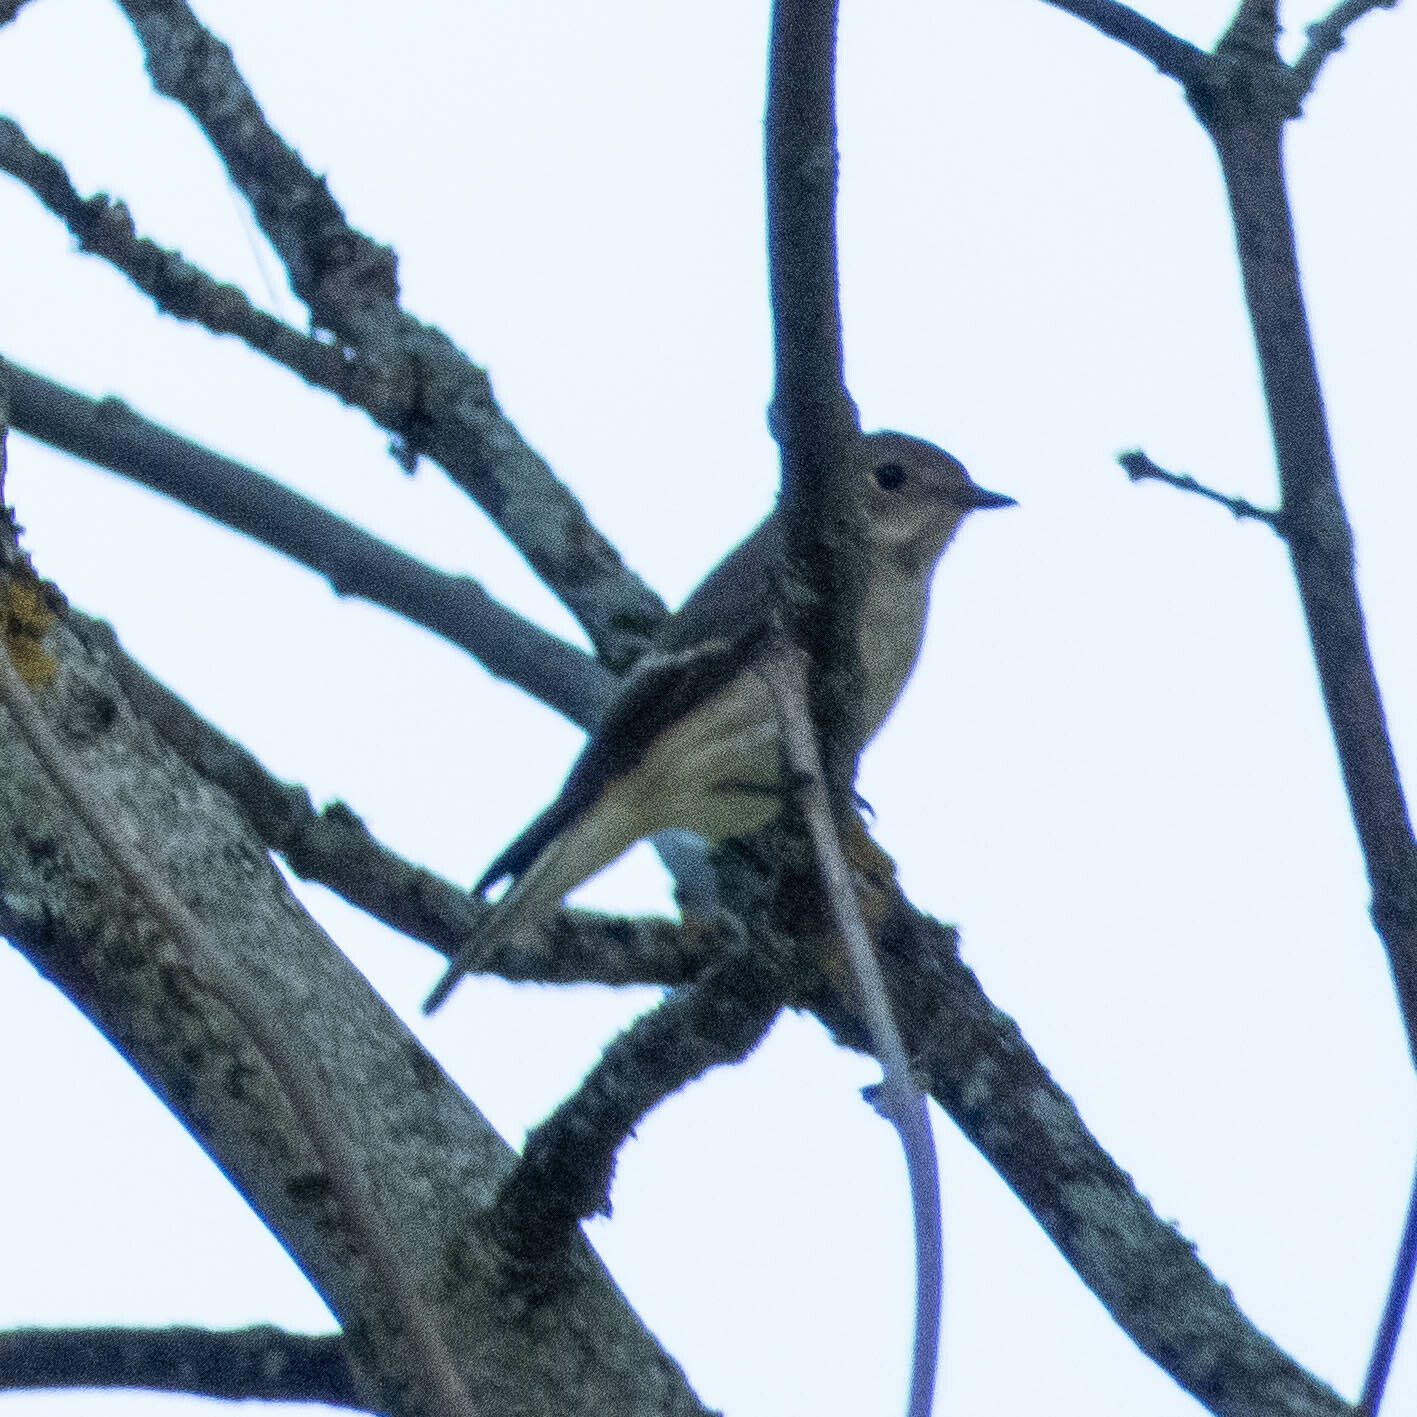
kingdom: Animalia
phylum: Chordata
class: Aves
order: Passeriformes
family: Muscicapidae
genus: Ficedula
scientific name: Ficedula hypoleuca
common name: European pied flycatcher
